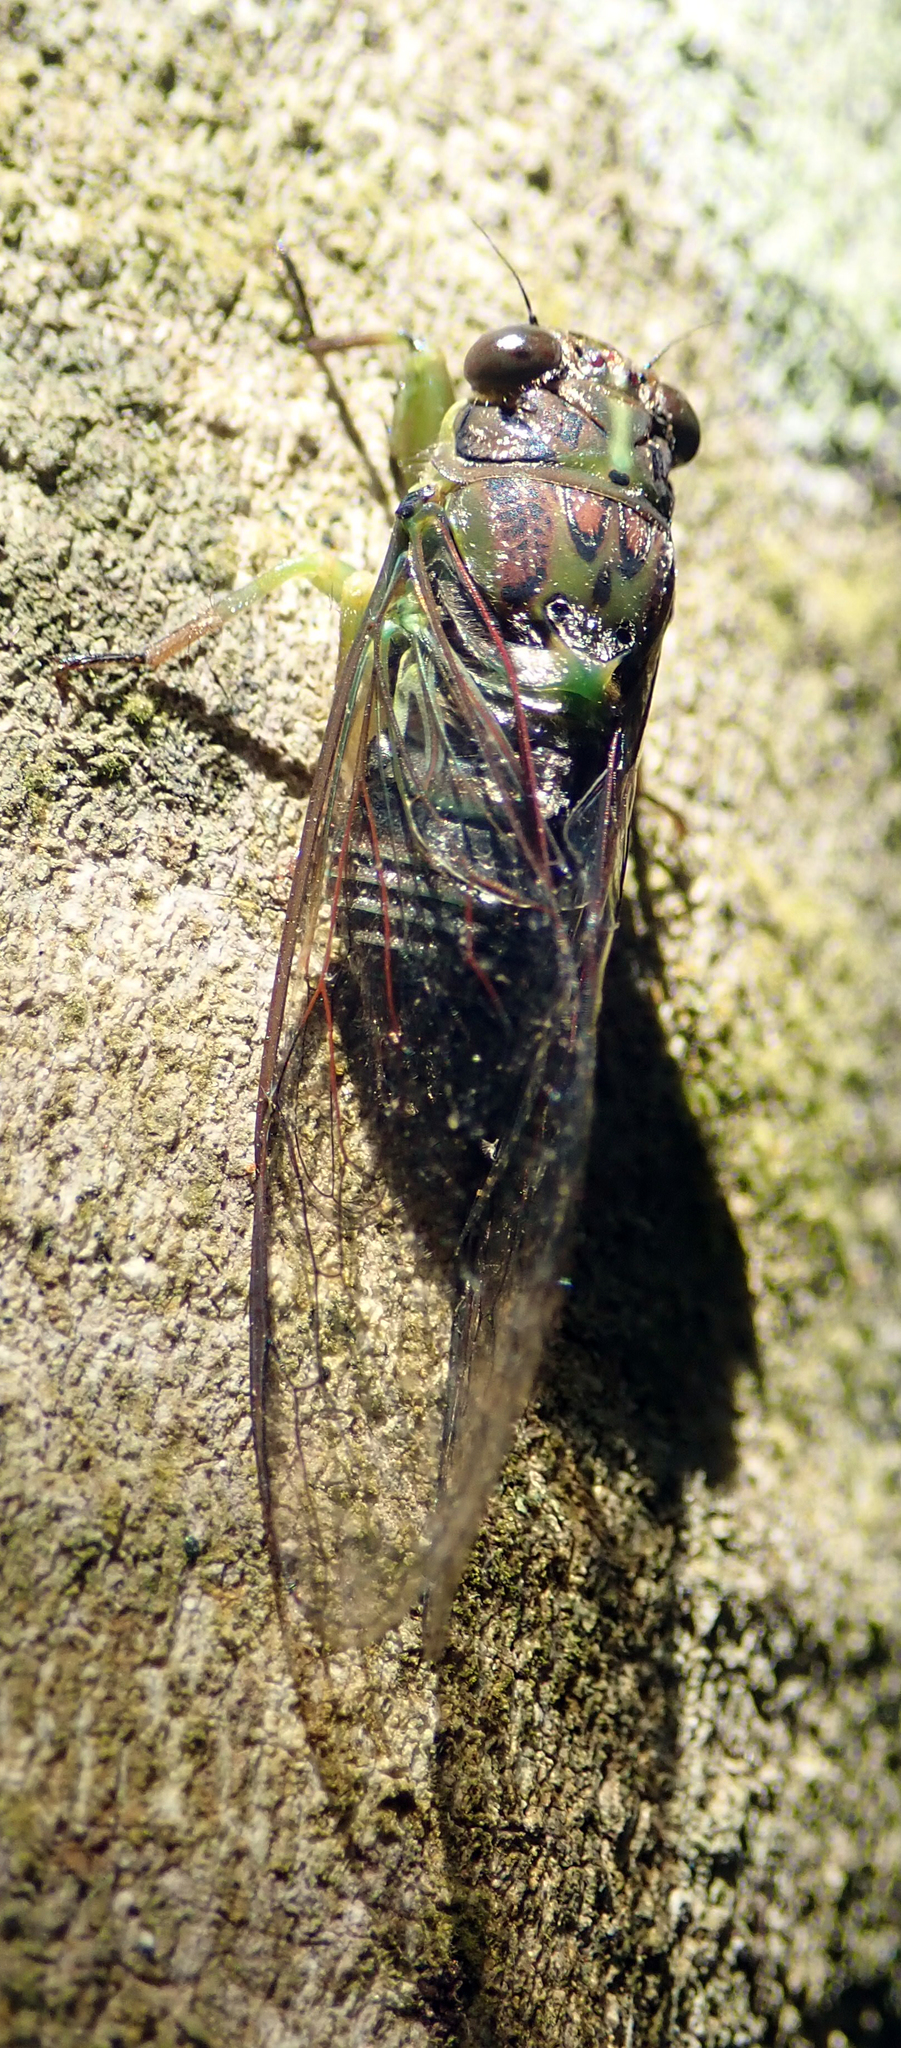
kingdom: Animalia
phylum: Arthropoda
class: Insecta
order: Hemiptera
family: Cicadidae
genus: Kikihia
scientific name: Kikihia scutellaris
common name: Lesser bronze cicada
